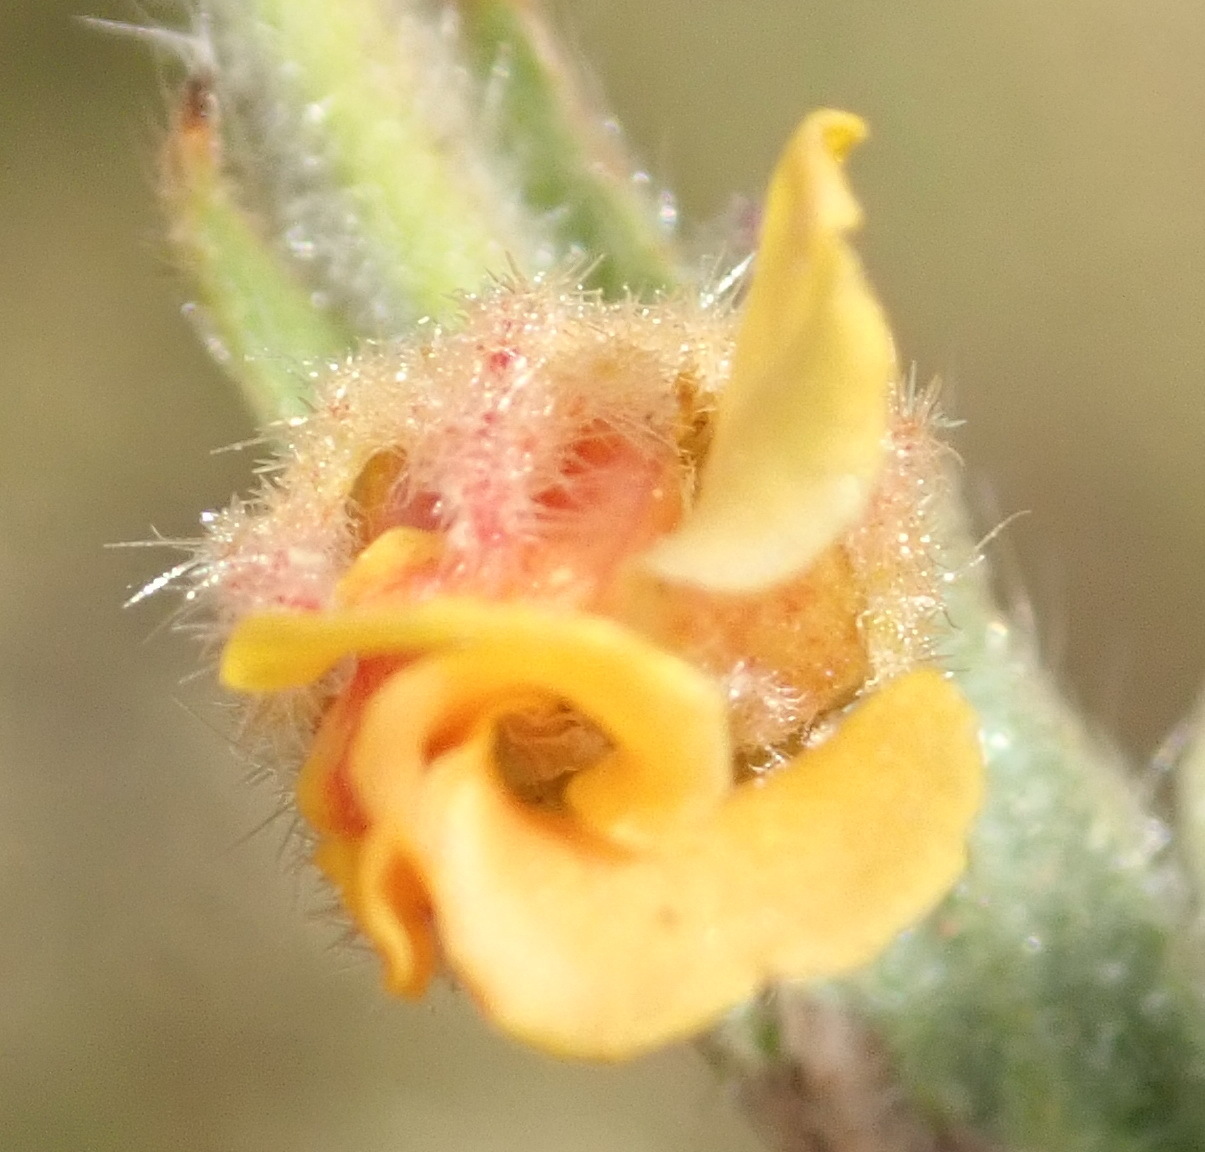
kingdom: Plantae
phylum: Tracheophyta
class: Magnoliopsida
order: Malvales
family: Malvaceae
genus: Hermannia
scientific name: Hermannia stipulacea
